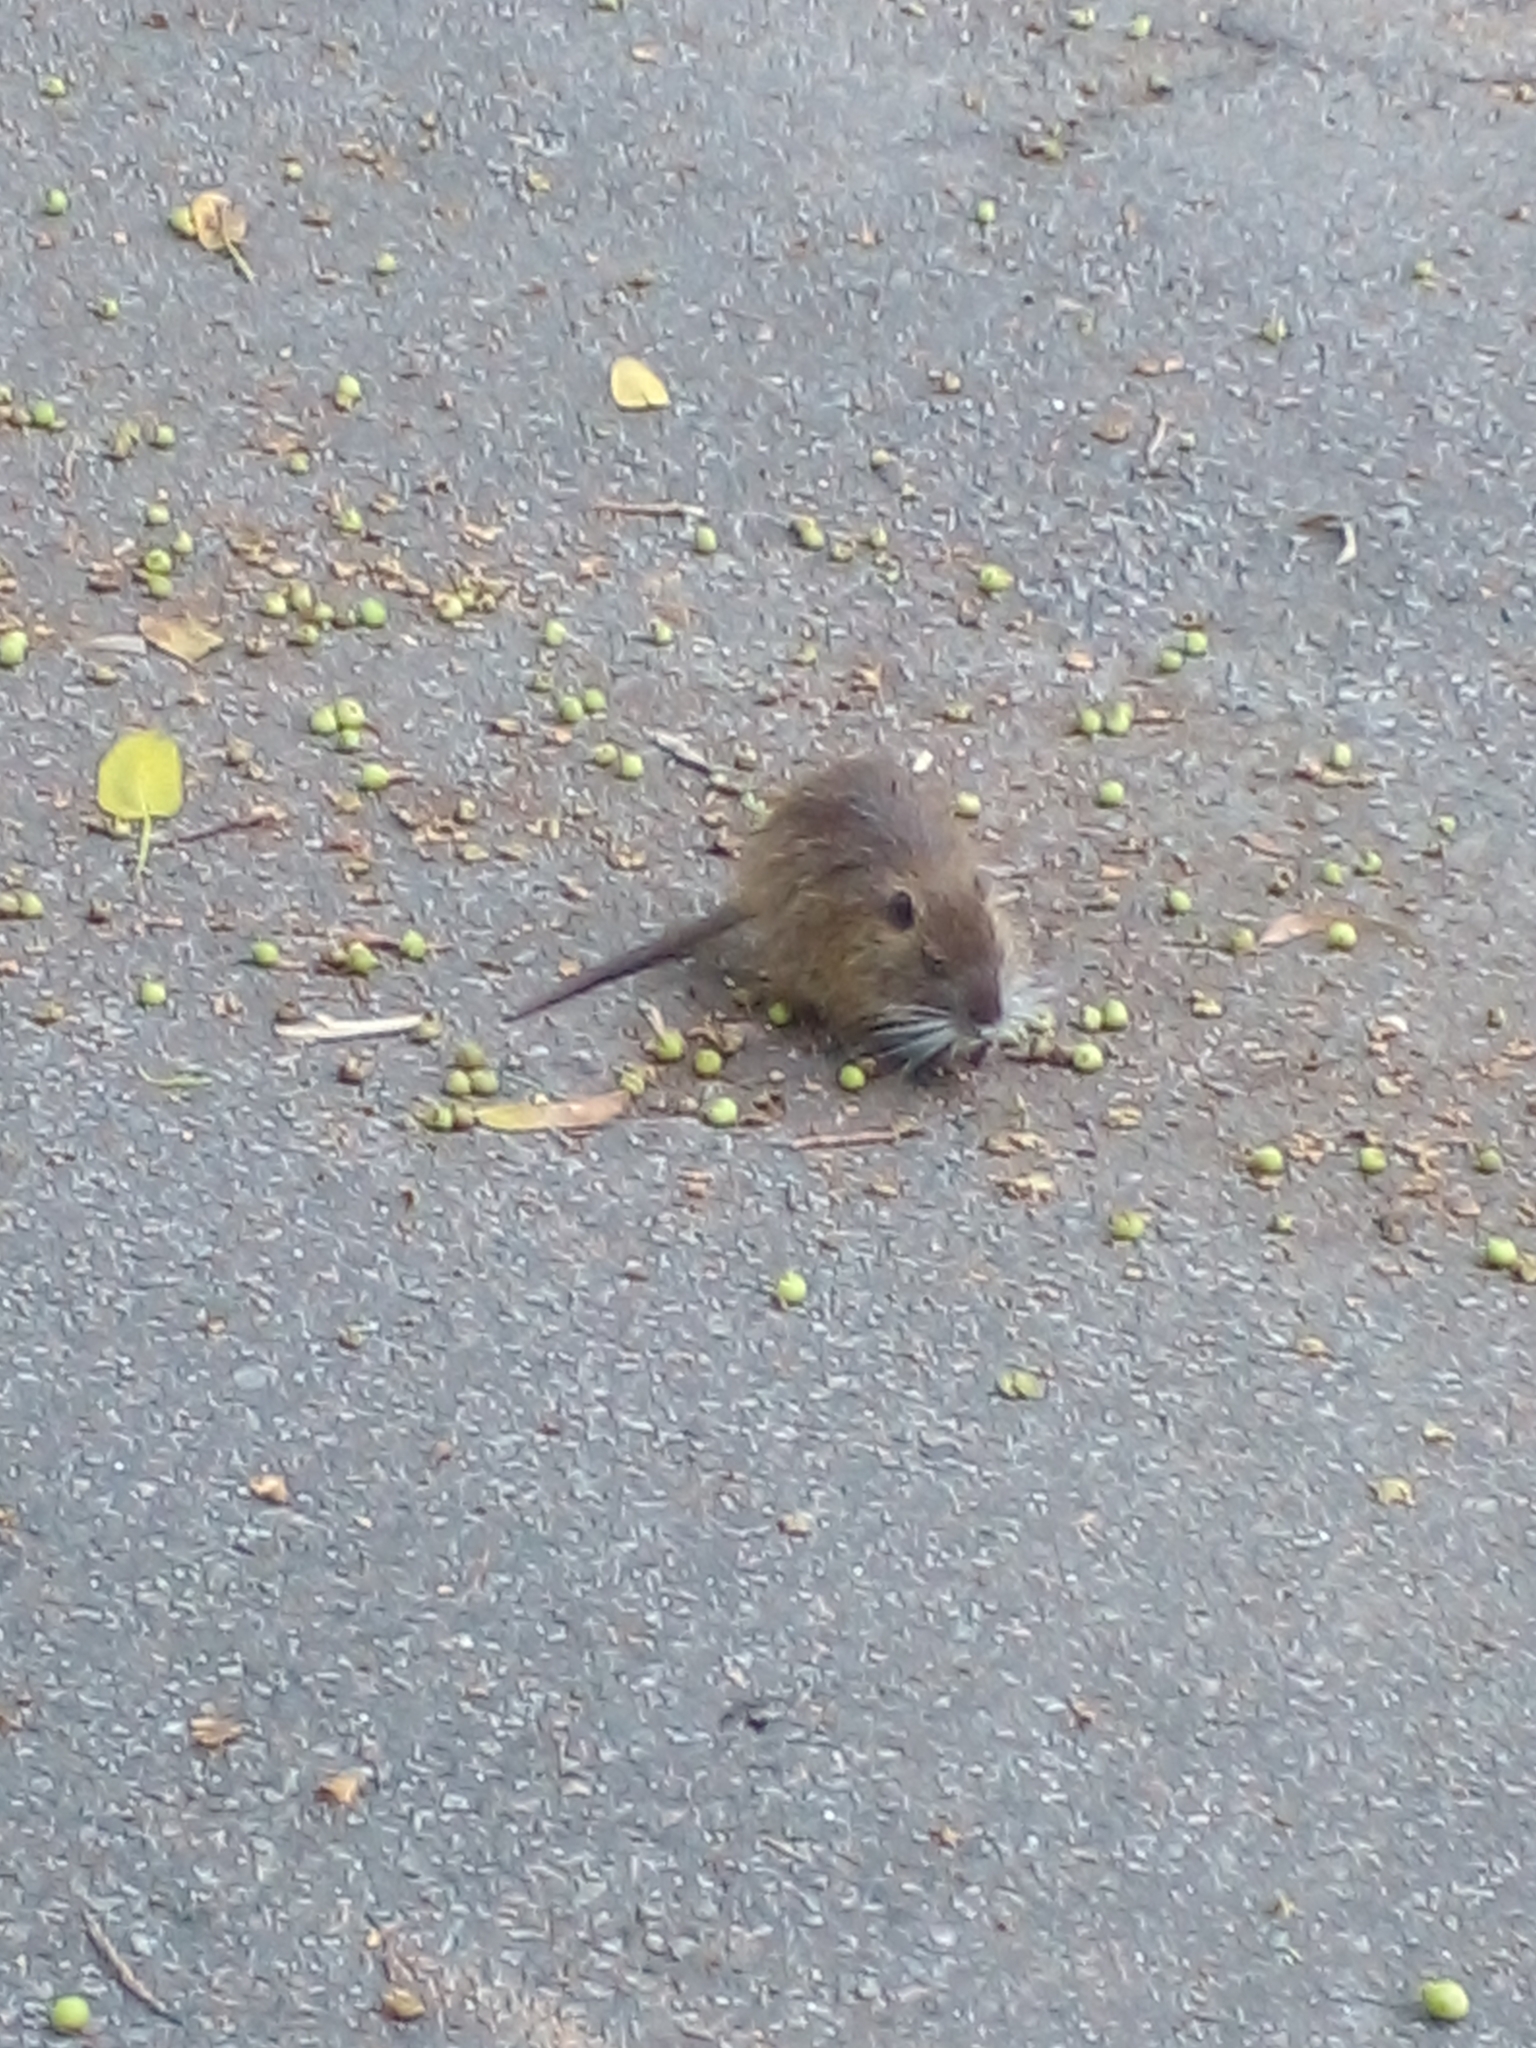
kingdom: Animalia
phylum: Chordata
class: Mammalia
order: Rodentia
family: Myocastoridae
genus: Myocastor
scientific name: Myocastor coypus
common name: Coypu
